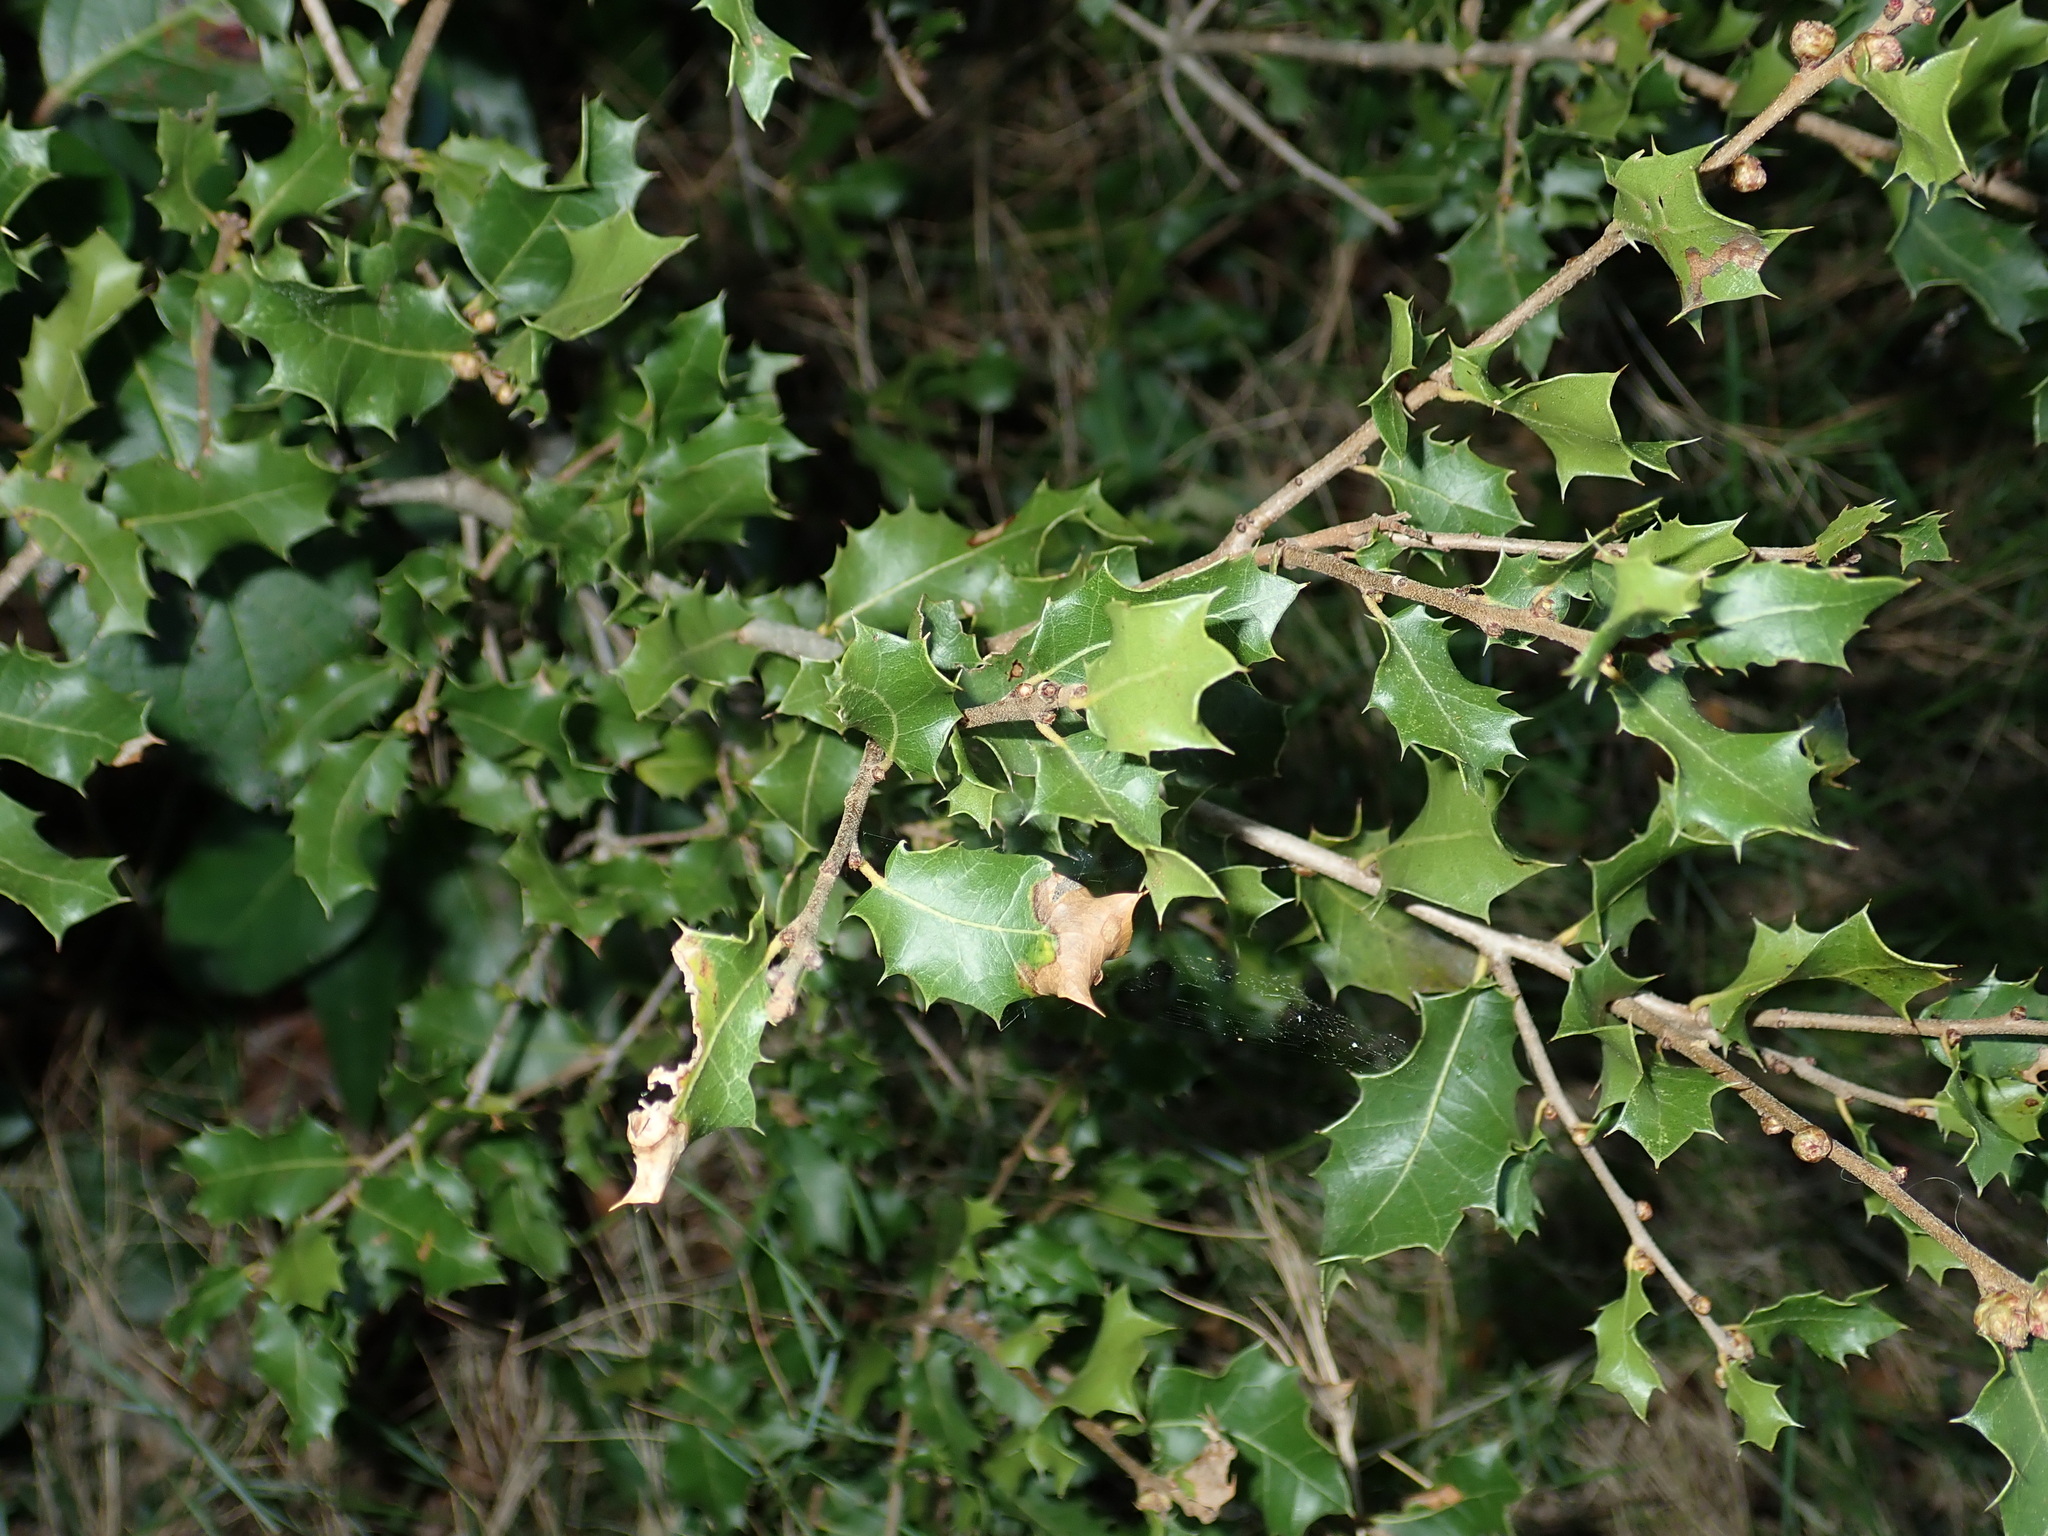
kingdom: Plantae
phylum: Tracheophyta
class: Magnoliopsida
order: Fagales
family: Fagaceae
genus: Quercus
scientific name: Quercus coccifera
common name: Kermes oak
